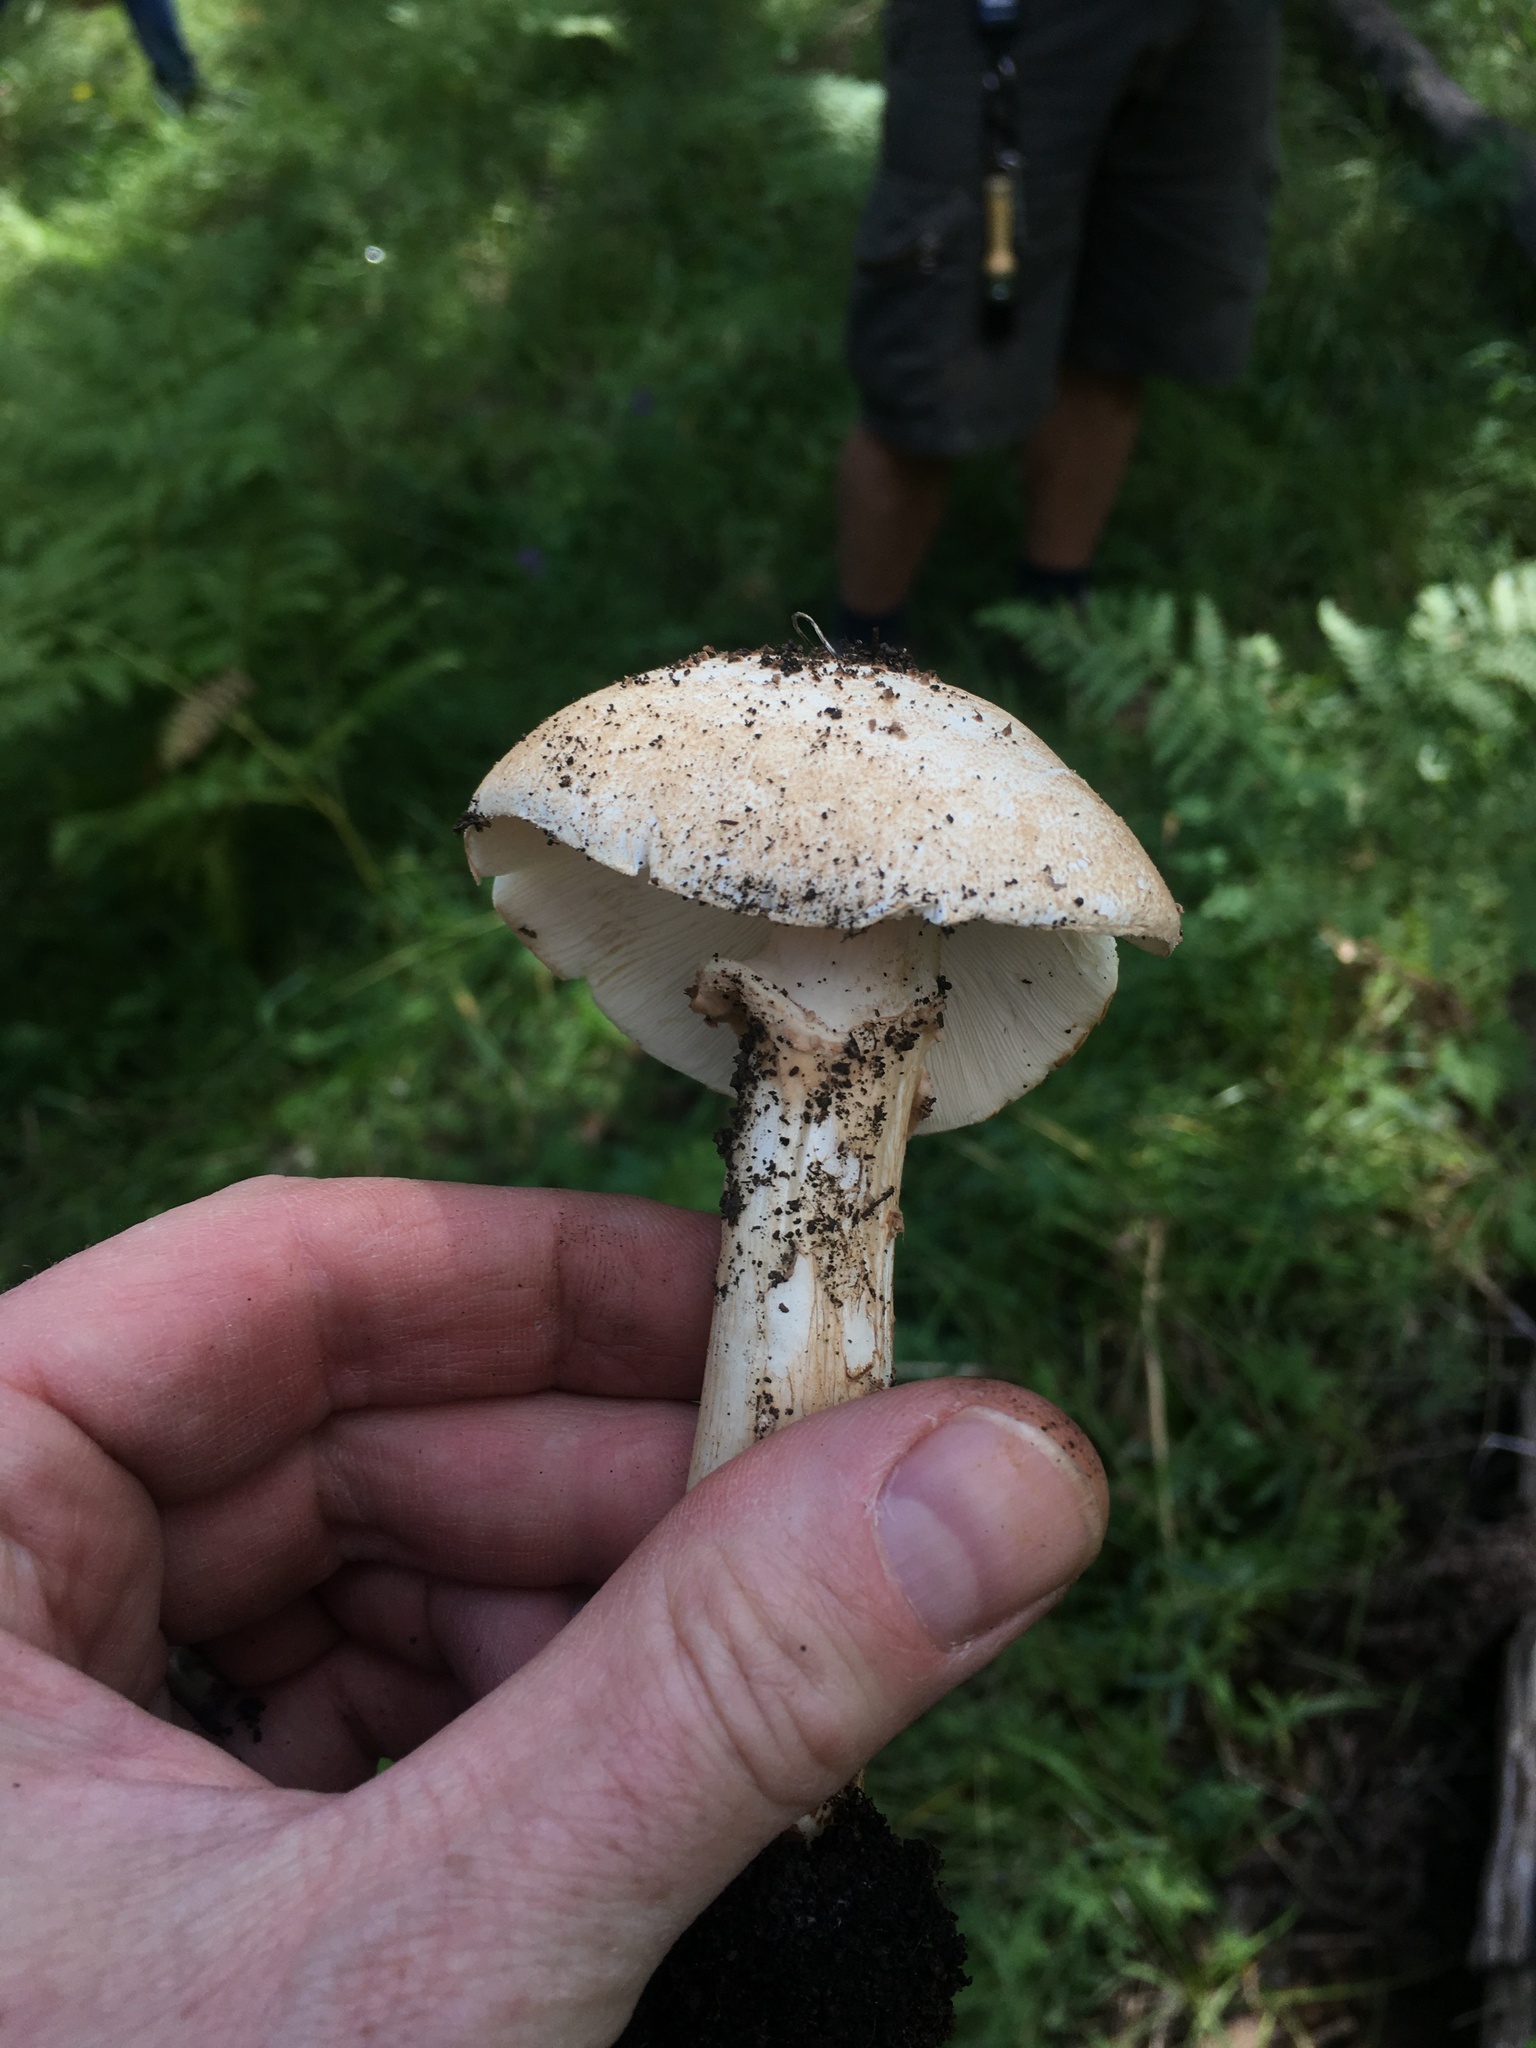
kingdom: Fungi
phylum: Basidiomycota
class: Agaricomycetes
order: Agaricales
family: Agaricaceae
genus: Echinoderma
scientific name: Echinoderma asperum
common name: Freckled dapperling
